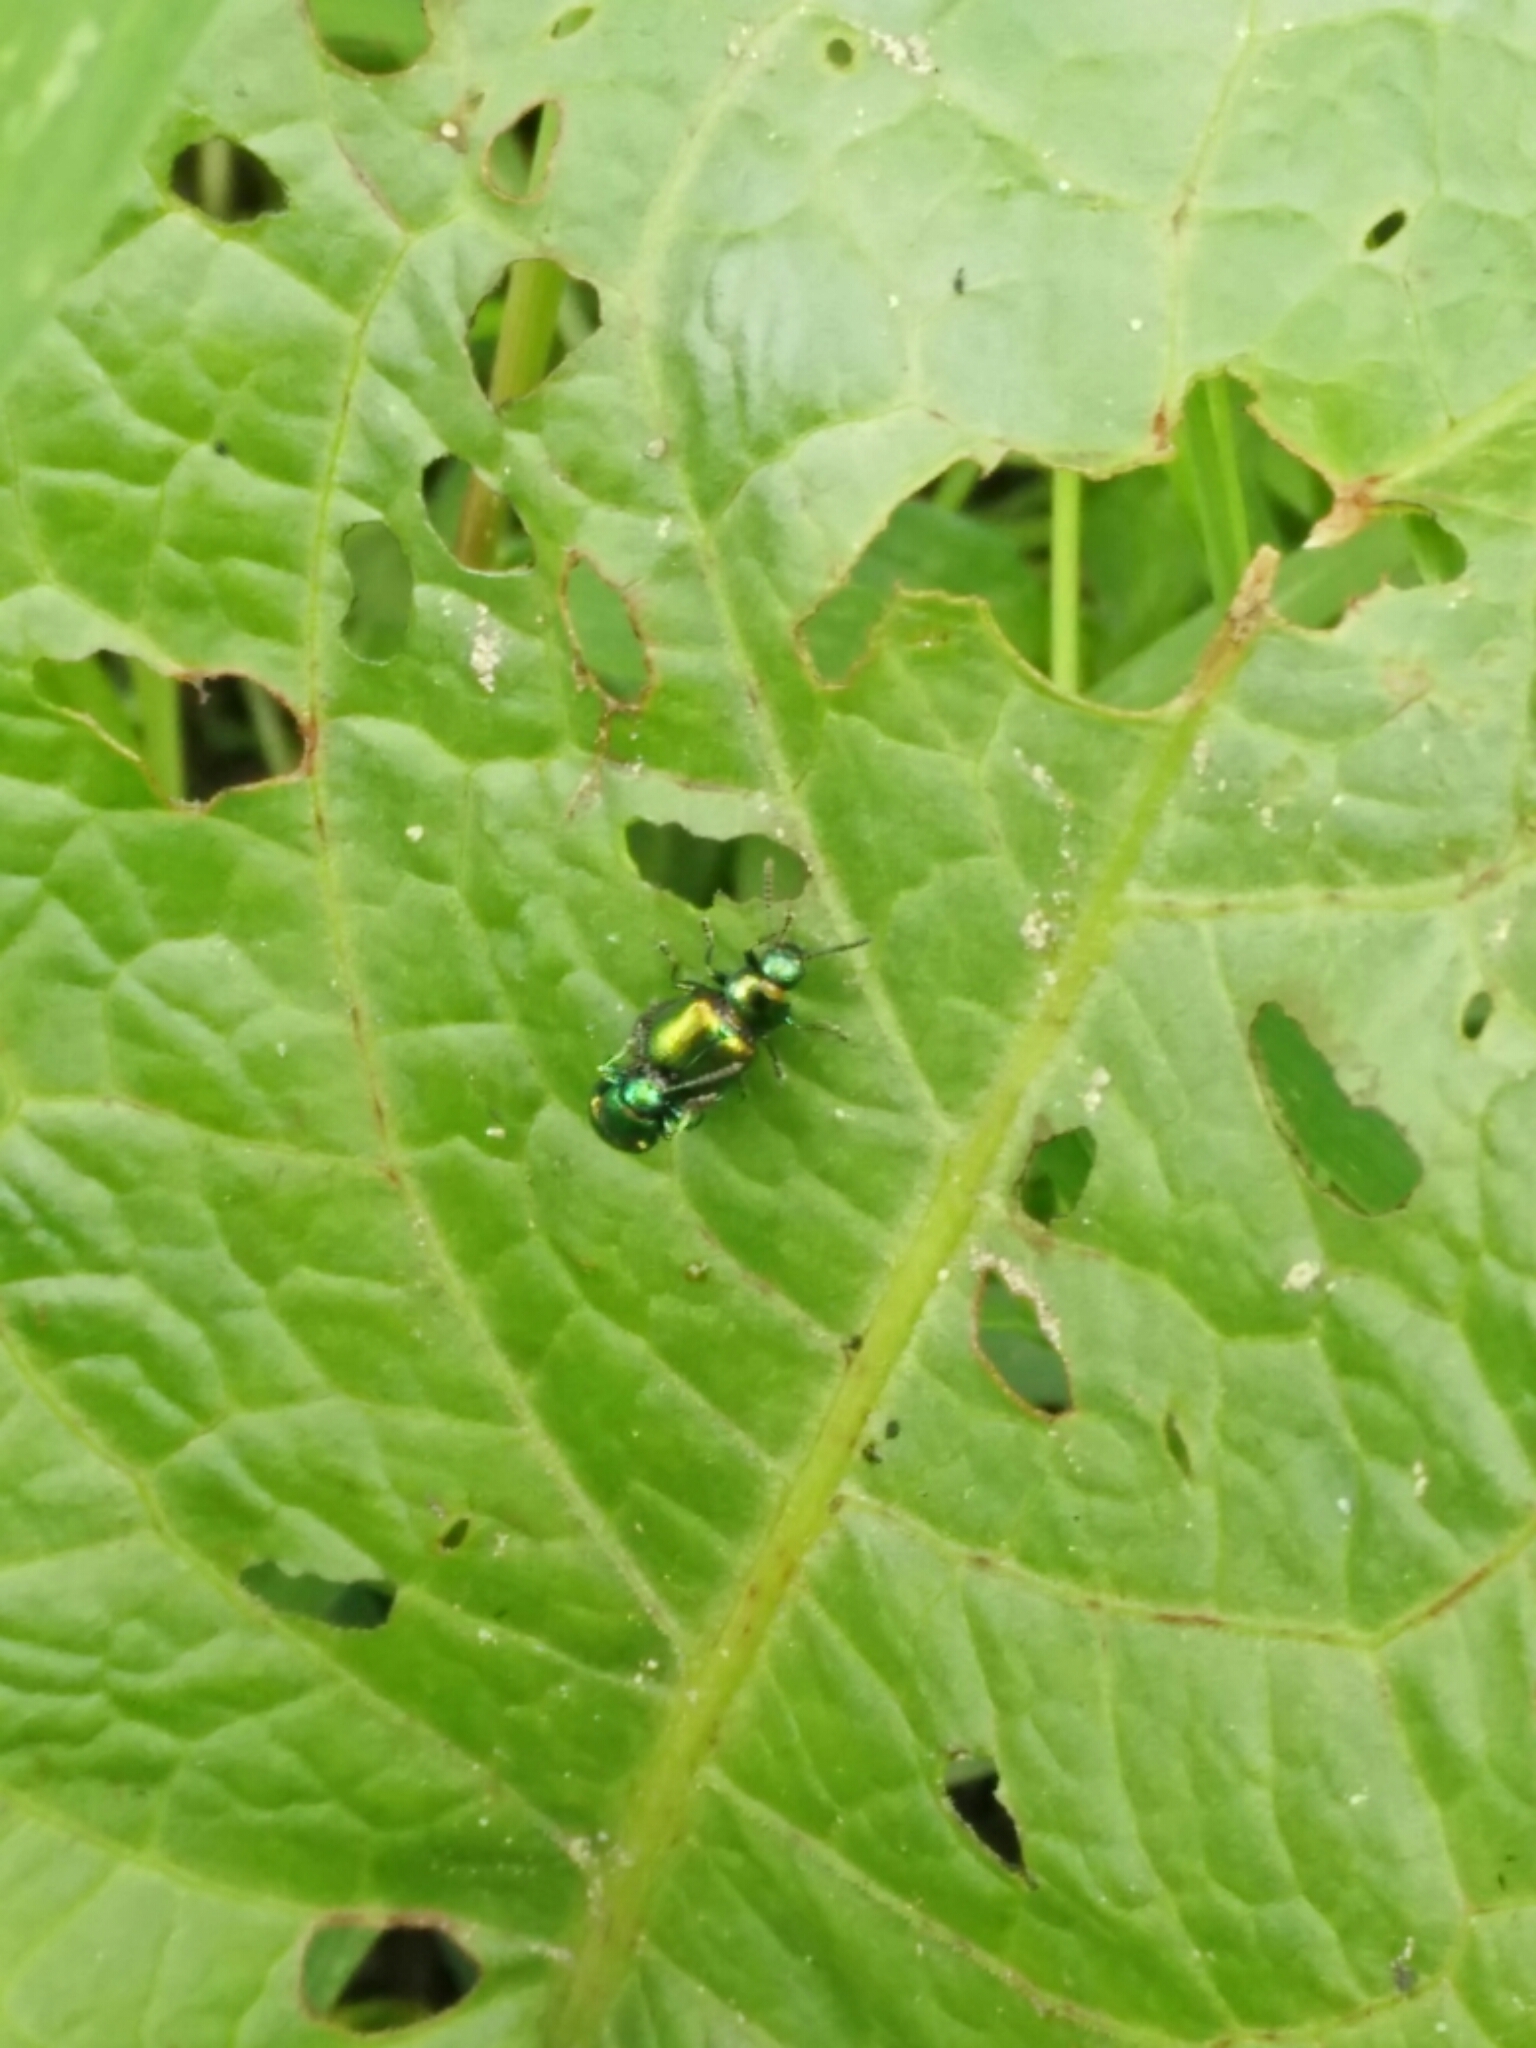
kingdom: Animalia
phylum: Arthropoda
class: Insecta
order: Coleoptera
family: Chrysomelidae
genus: Gastrophysa
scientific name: Gastrophysa viridula
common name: Green dock beetle
